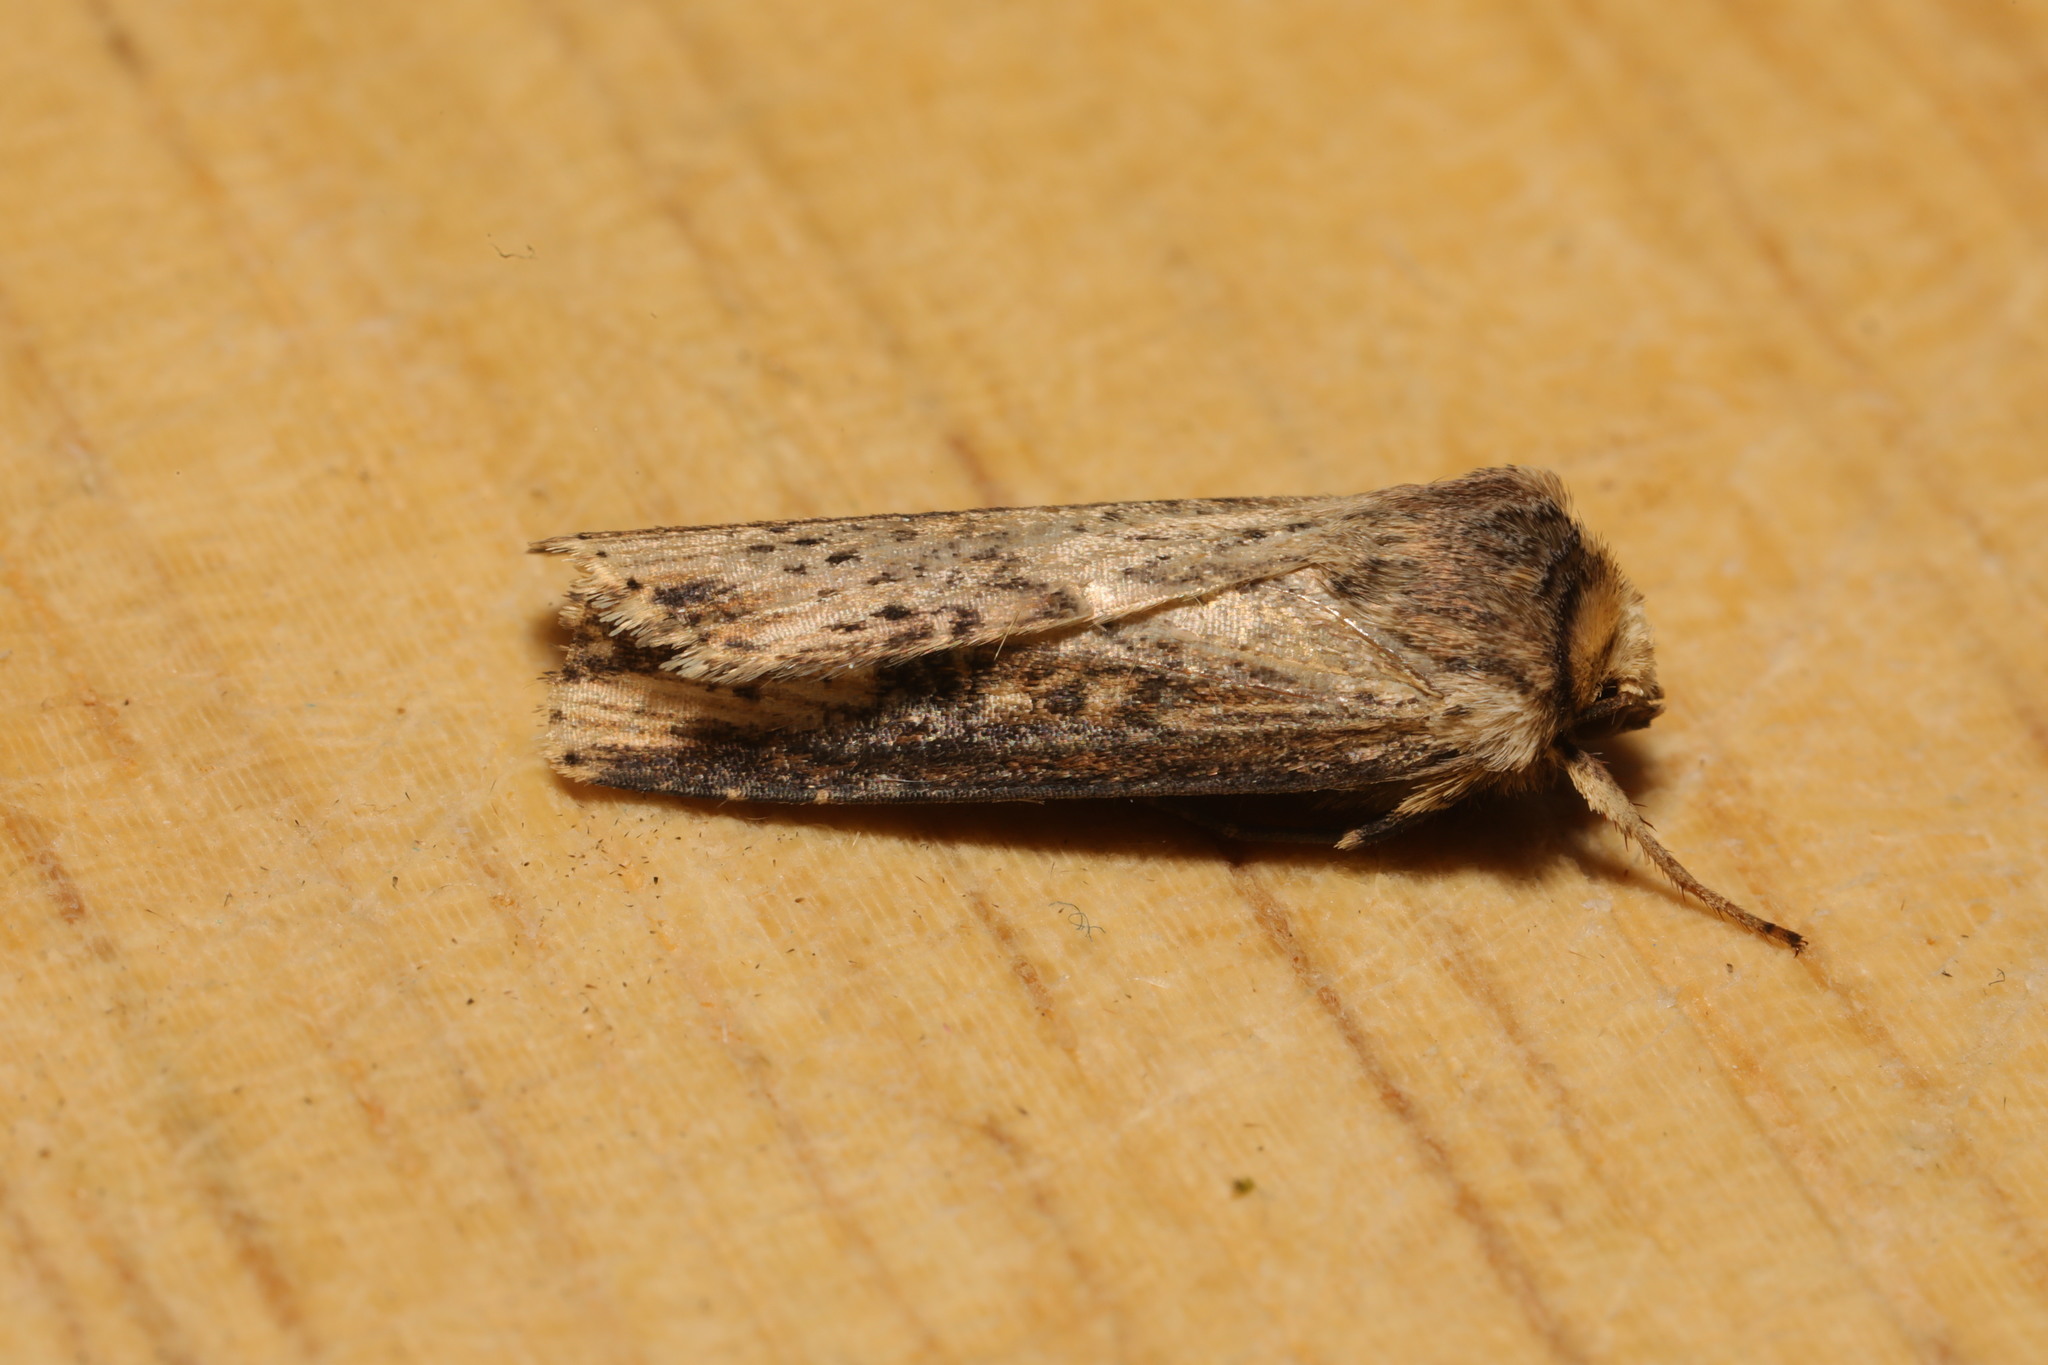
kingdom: Animalia
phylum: Arthropoda
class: Insecta
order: Lepidoptera
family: Noctuidae
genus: Axylia
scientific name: Axylia putris
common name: Flame
